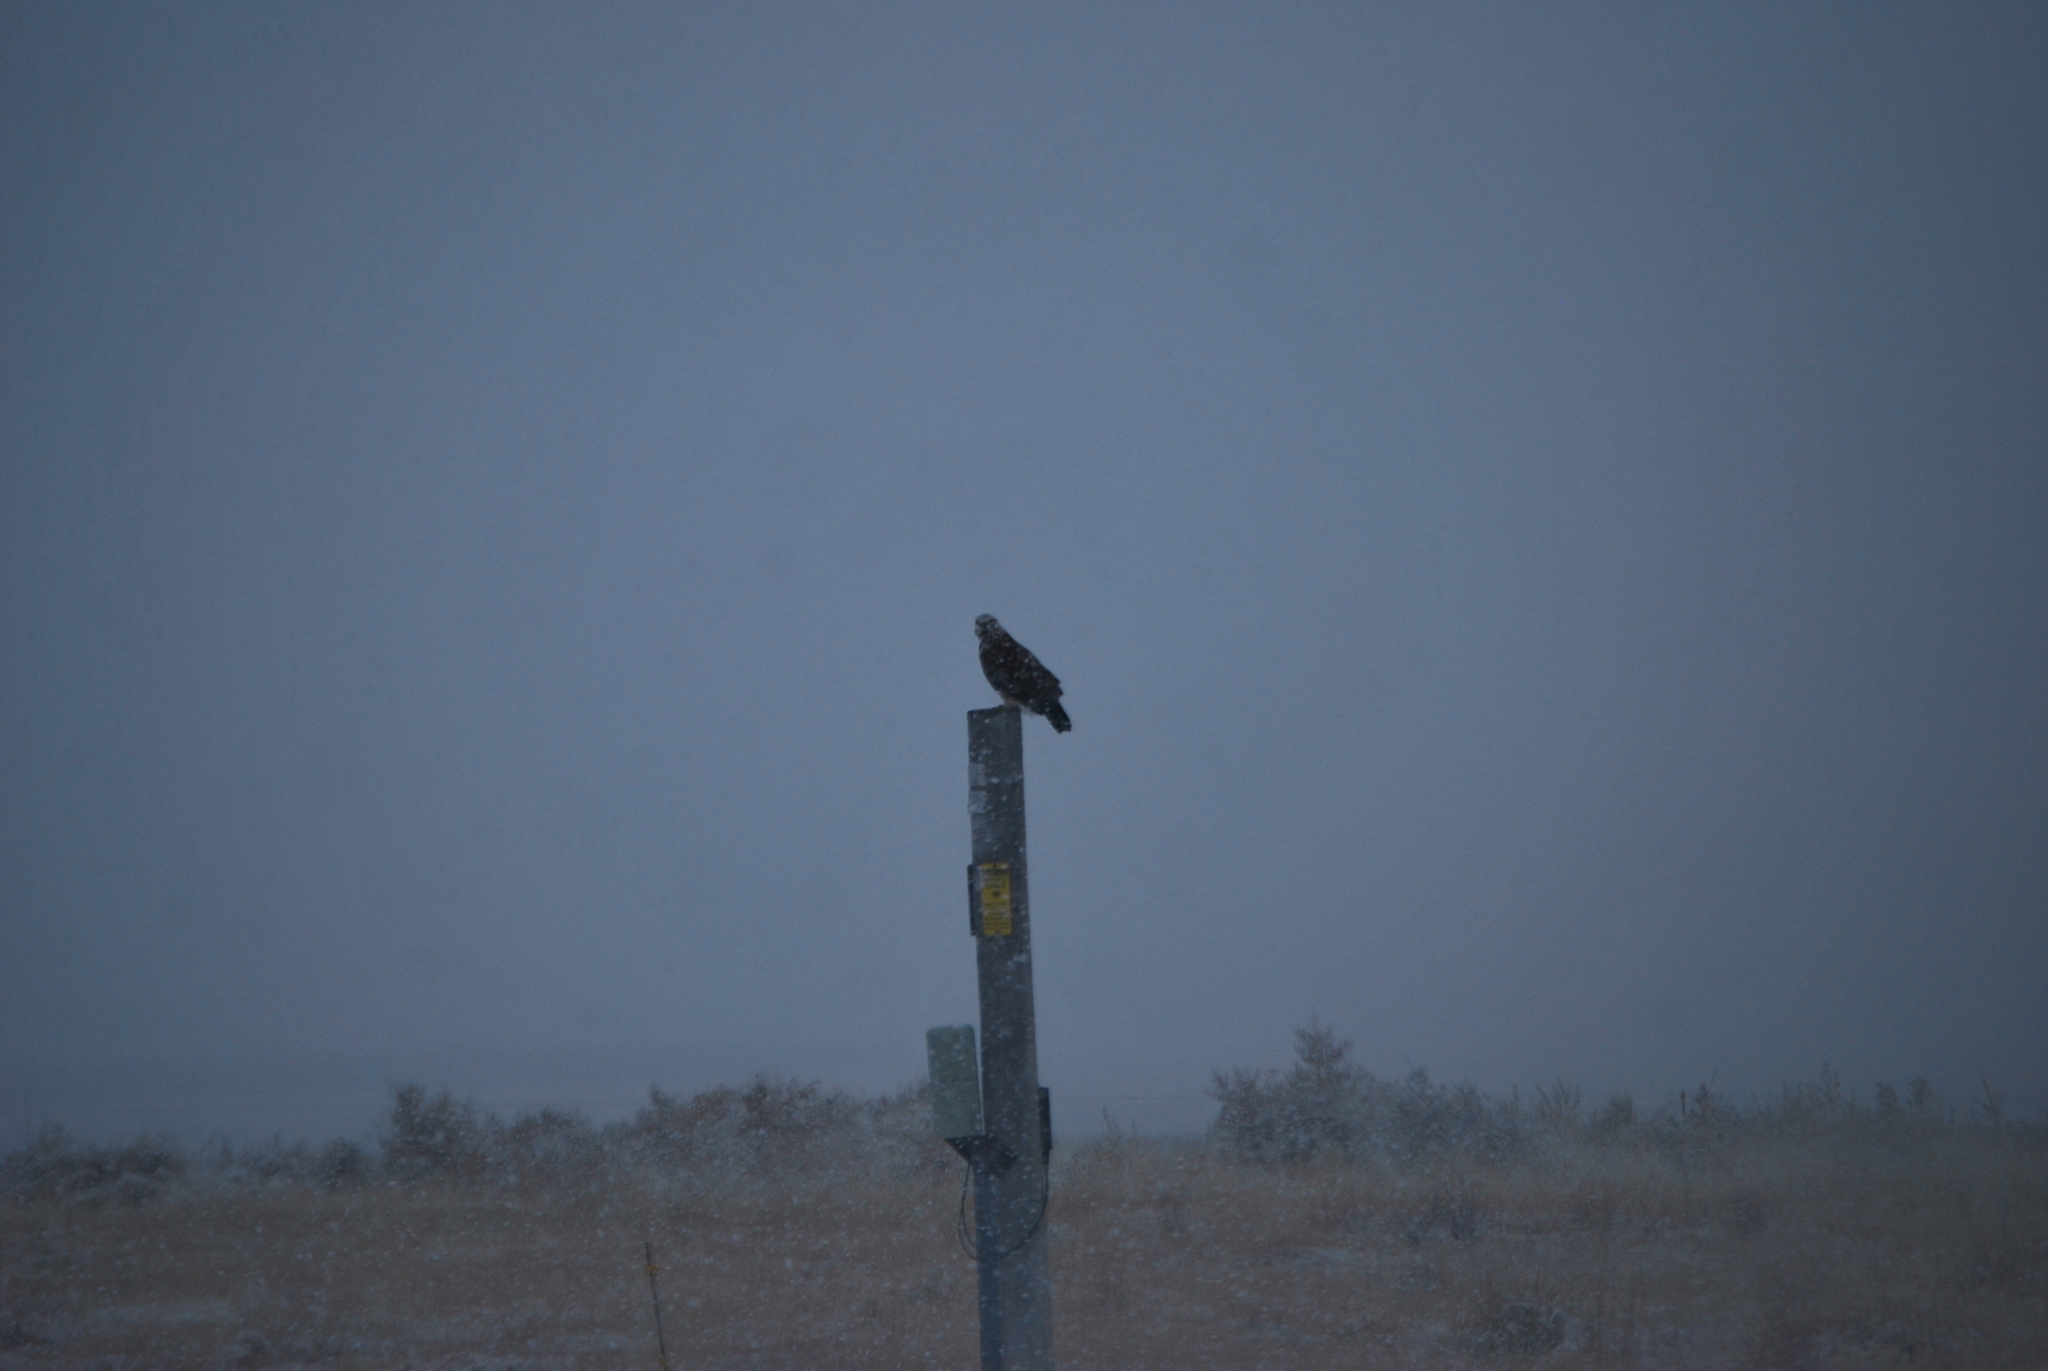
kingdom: Animalia
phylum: Chordata
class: Aves
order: Accipitriformes
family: Accipitridae
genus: Buteo
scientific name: Buteo lagopus
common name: Rough-legged buzzard
